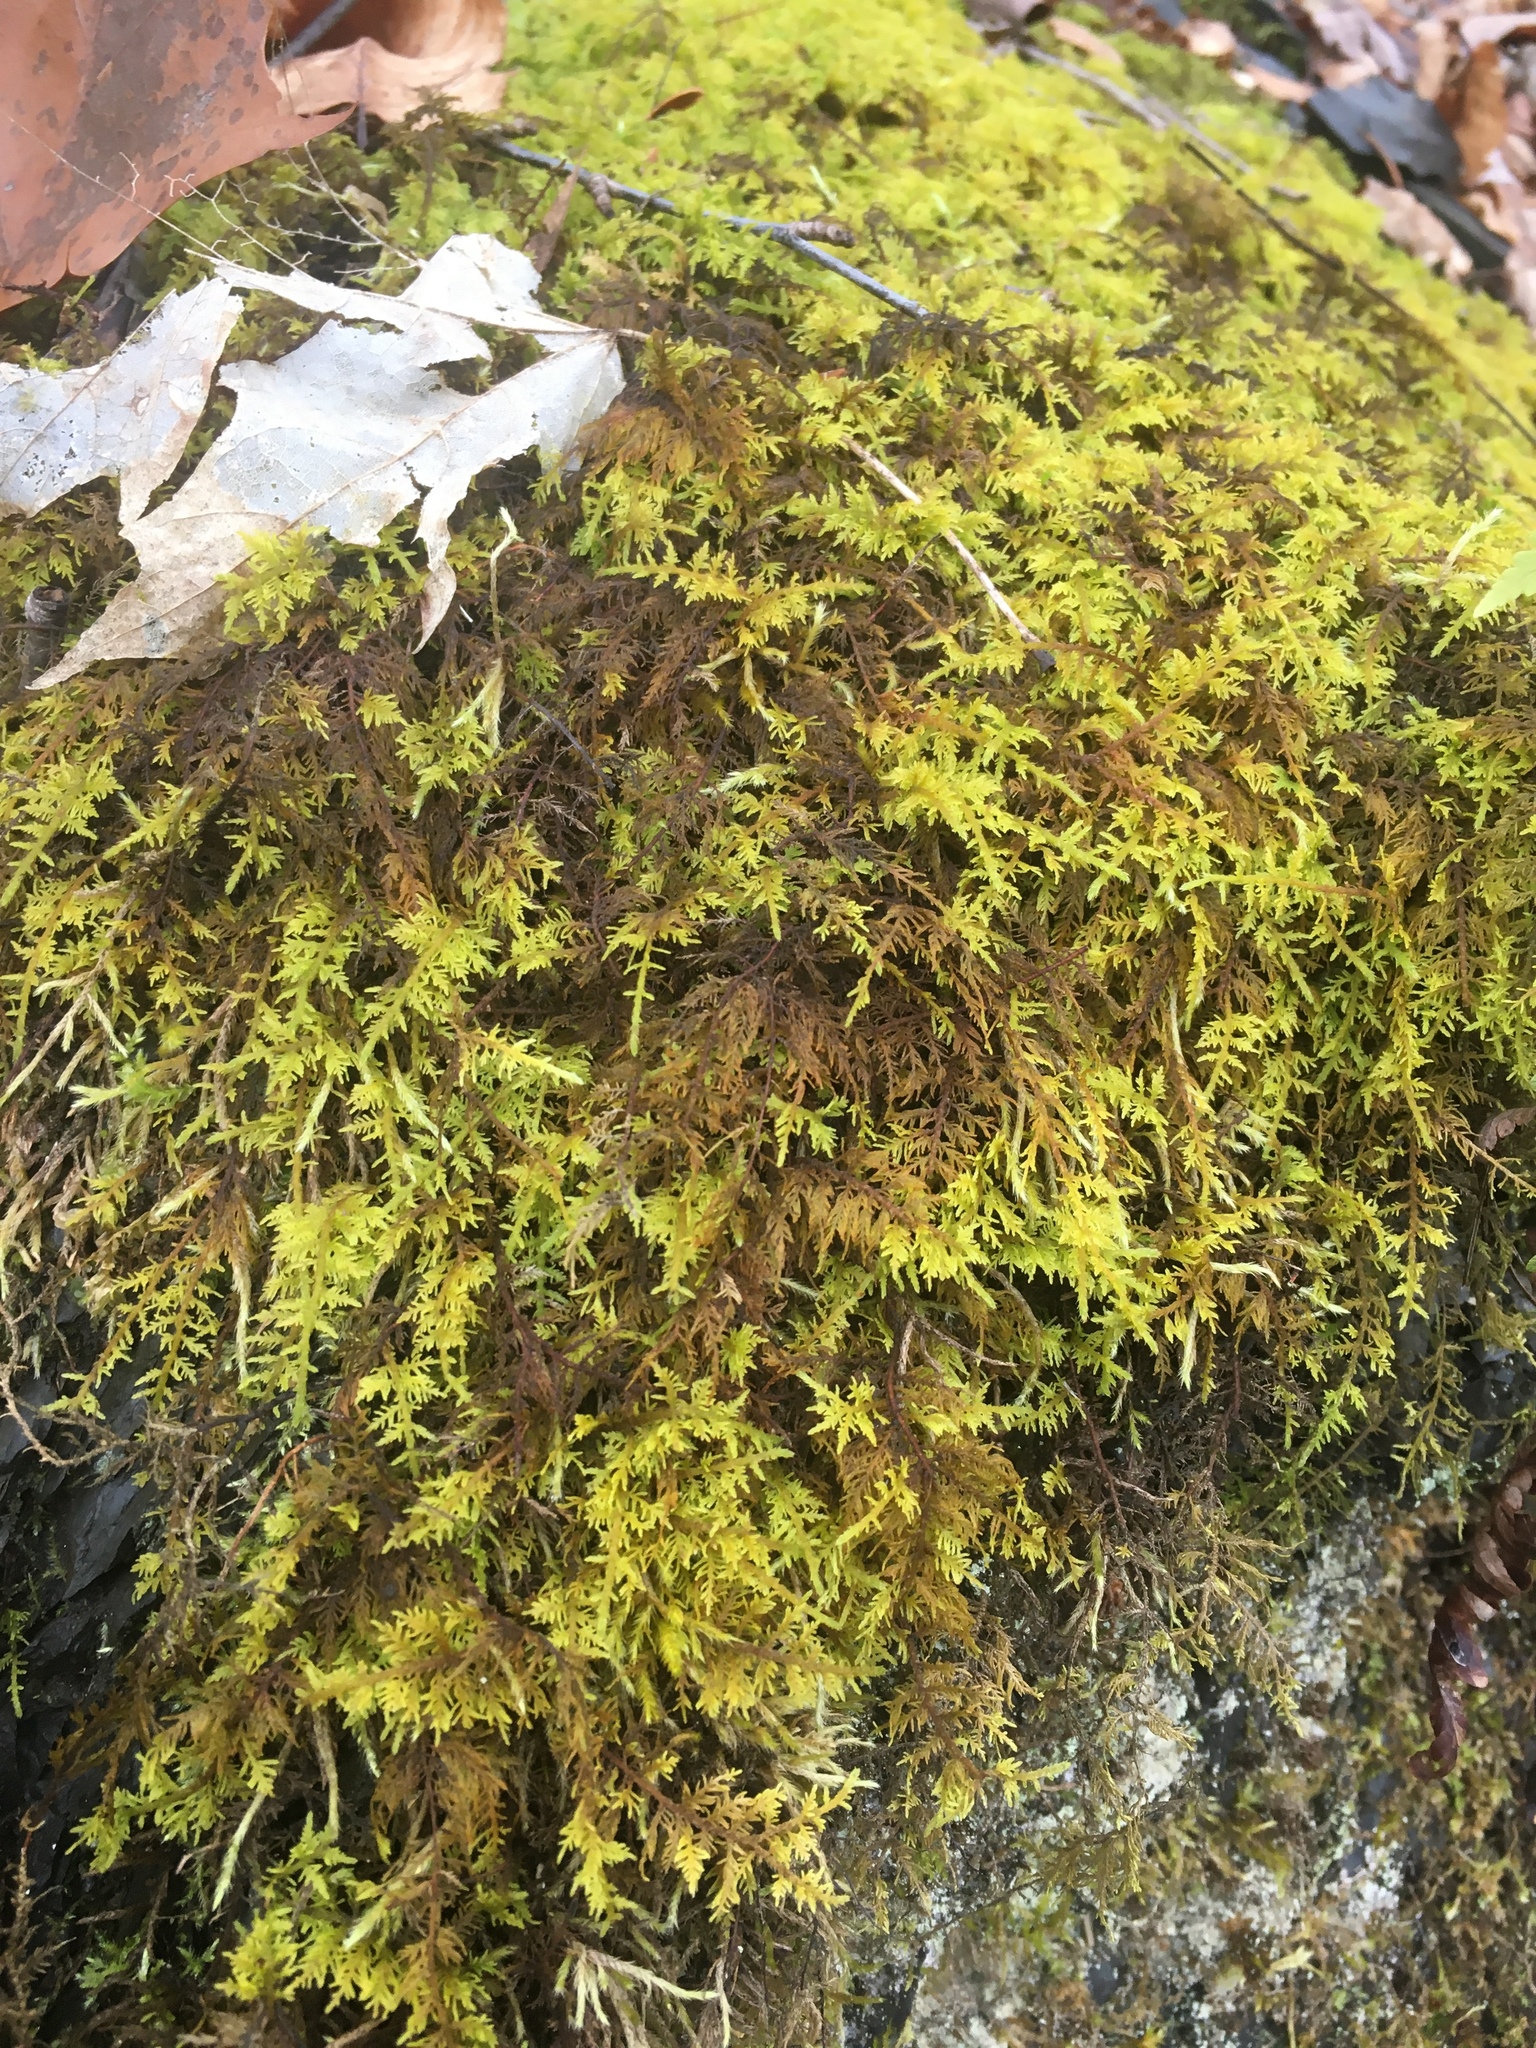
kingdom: Plantae
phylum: Bryophyta
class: Bryopsida
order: Hypnales
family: Thuidiaceae
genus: Thuidium
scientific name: Thuidium delicatulum
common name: Delicate fern moss
